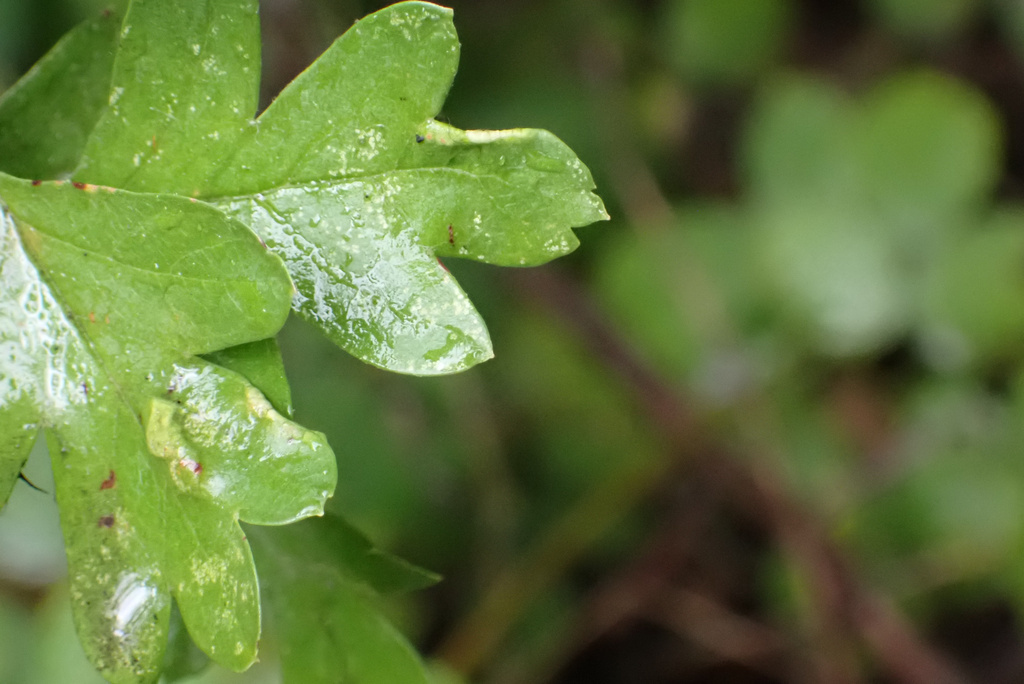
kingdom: Animalia
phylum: Arthropoda
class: Arachnida
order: Trombidiformes
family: Eriophyidae
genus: Phyllocoptes
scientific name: Phyllocoptes goniothorax
